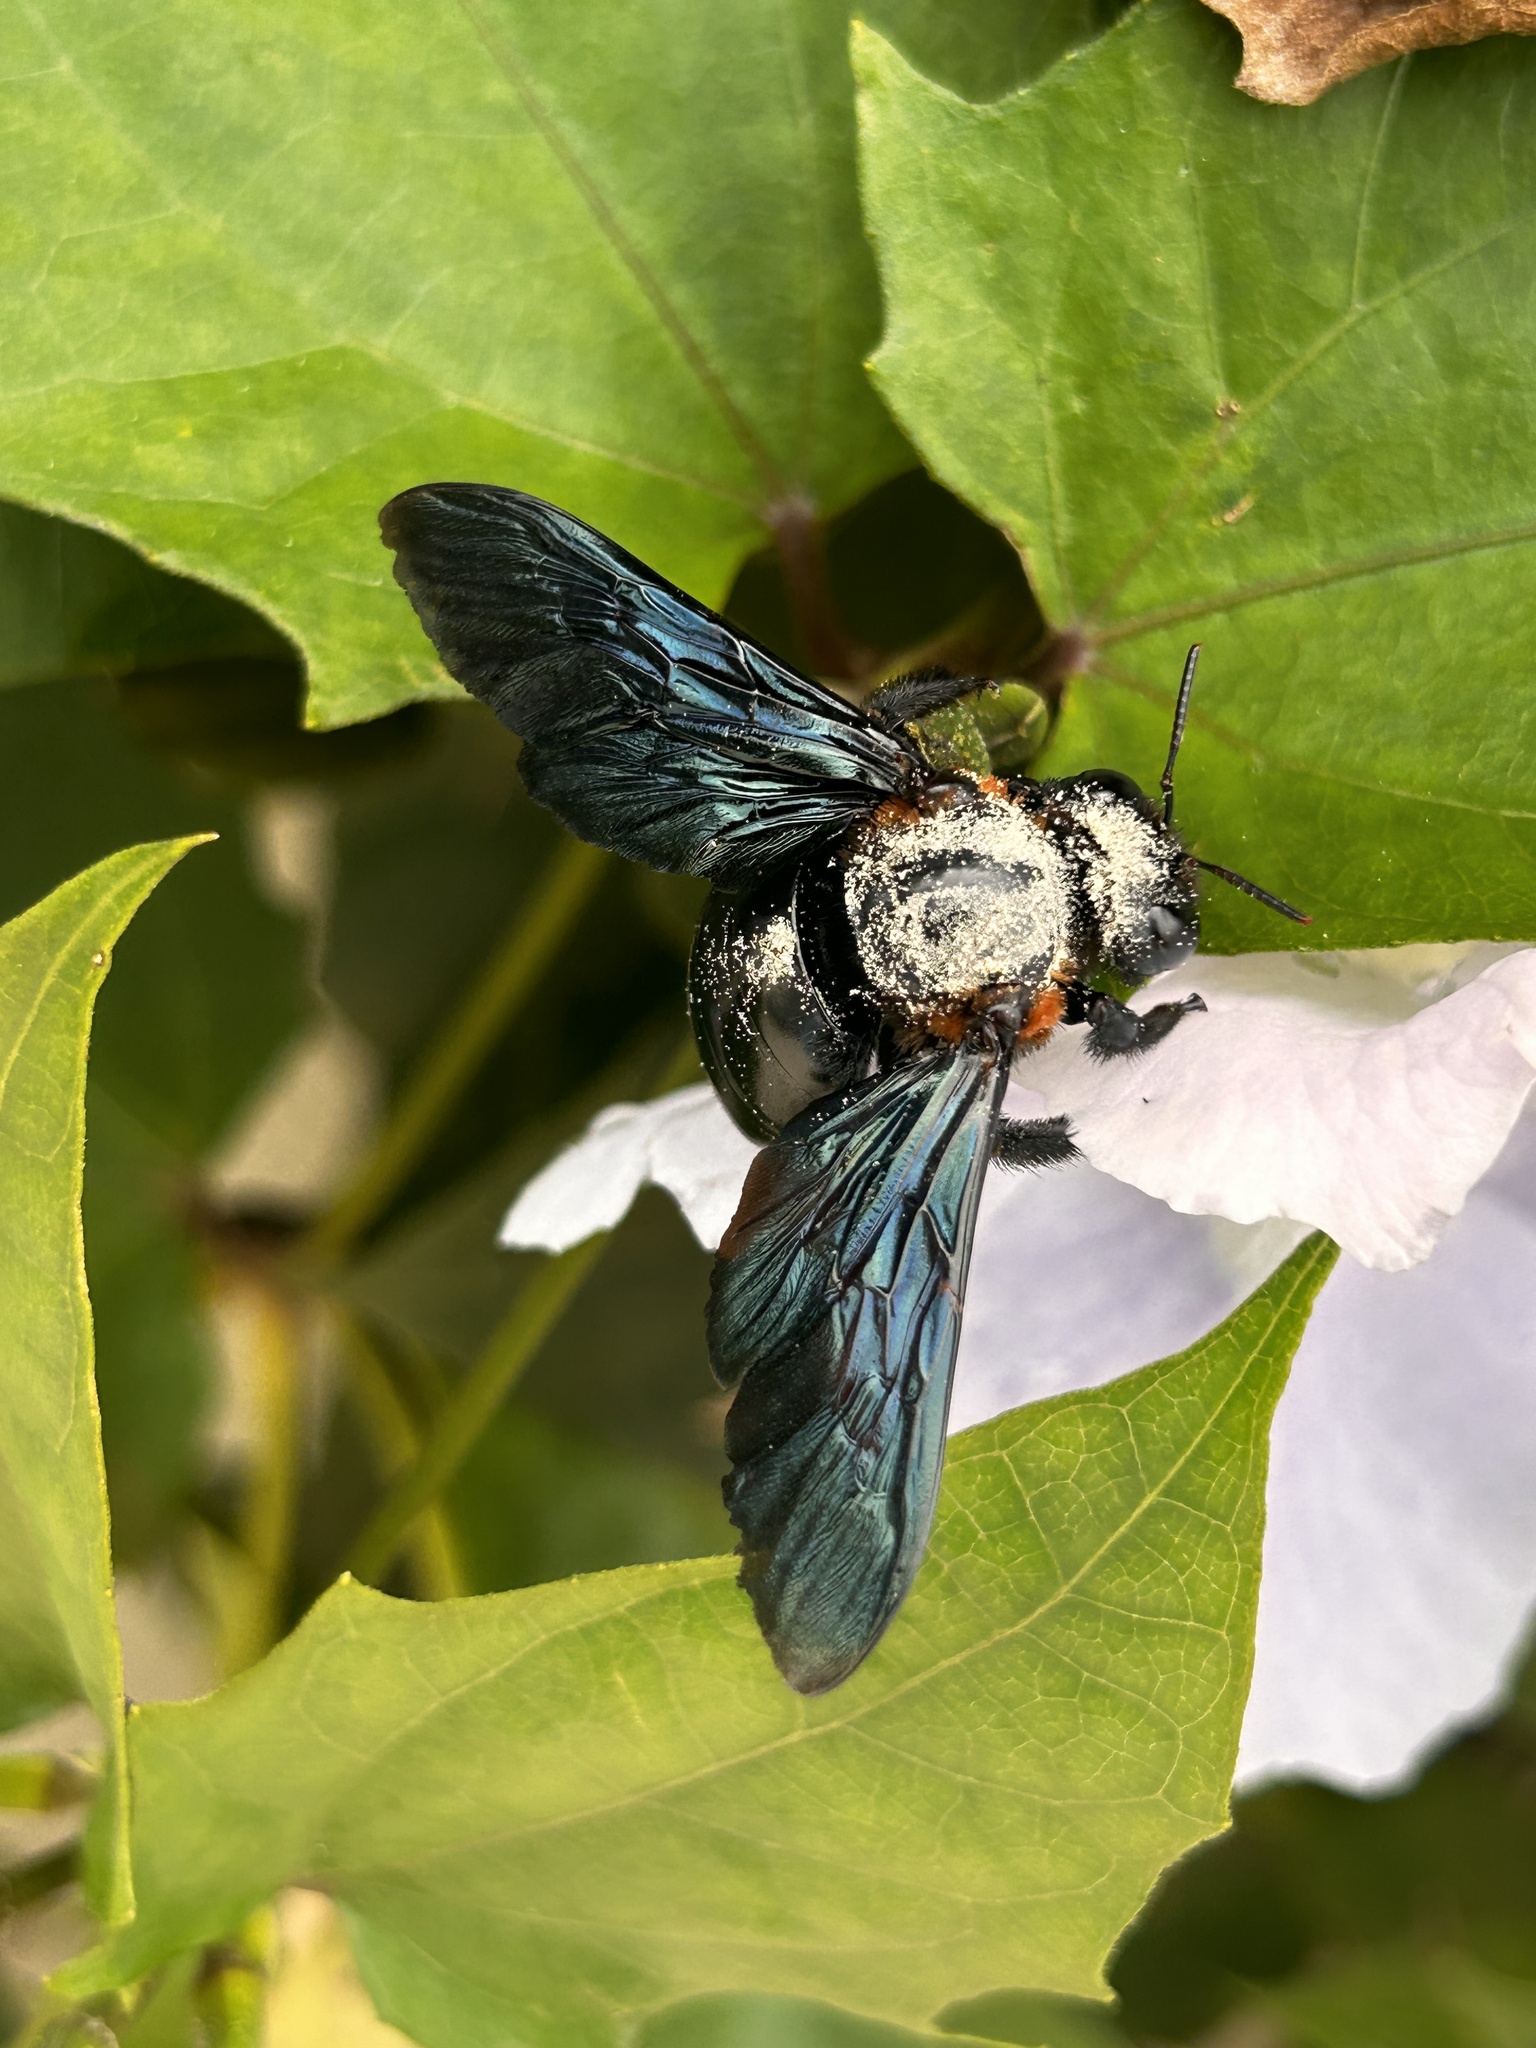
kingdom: Animalia
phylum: Arthropoda
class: Insecta
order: Hymenoptera
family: Apidae
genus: Xylocopa
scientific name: Xylocopa flavorufa
